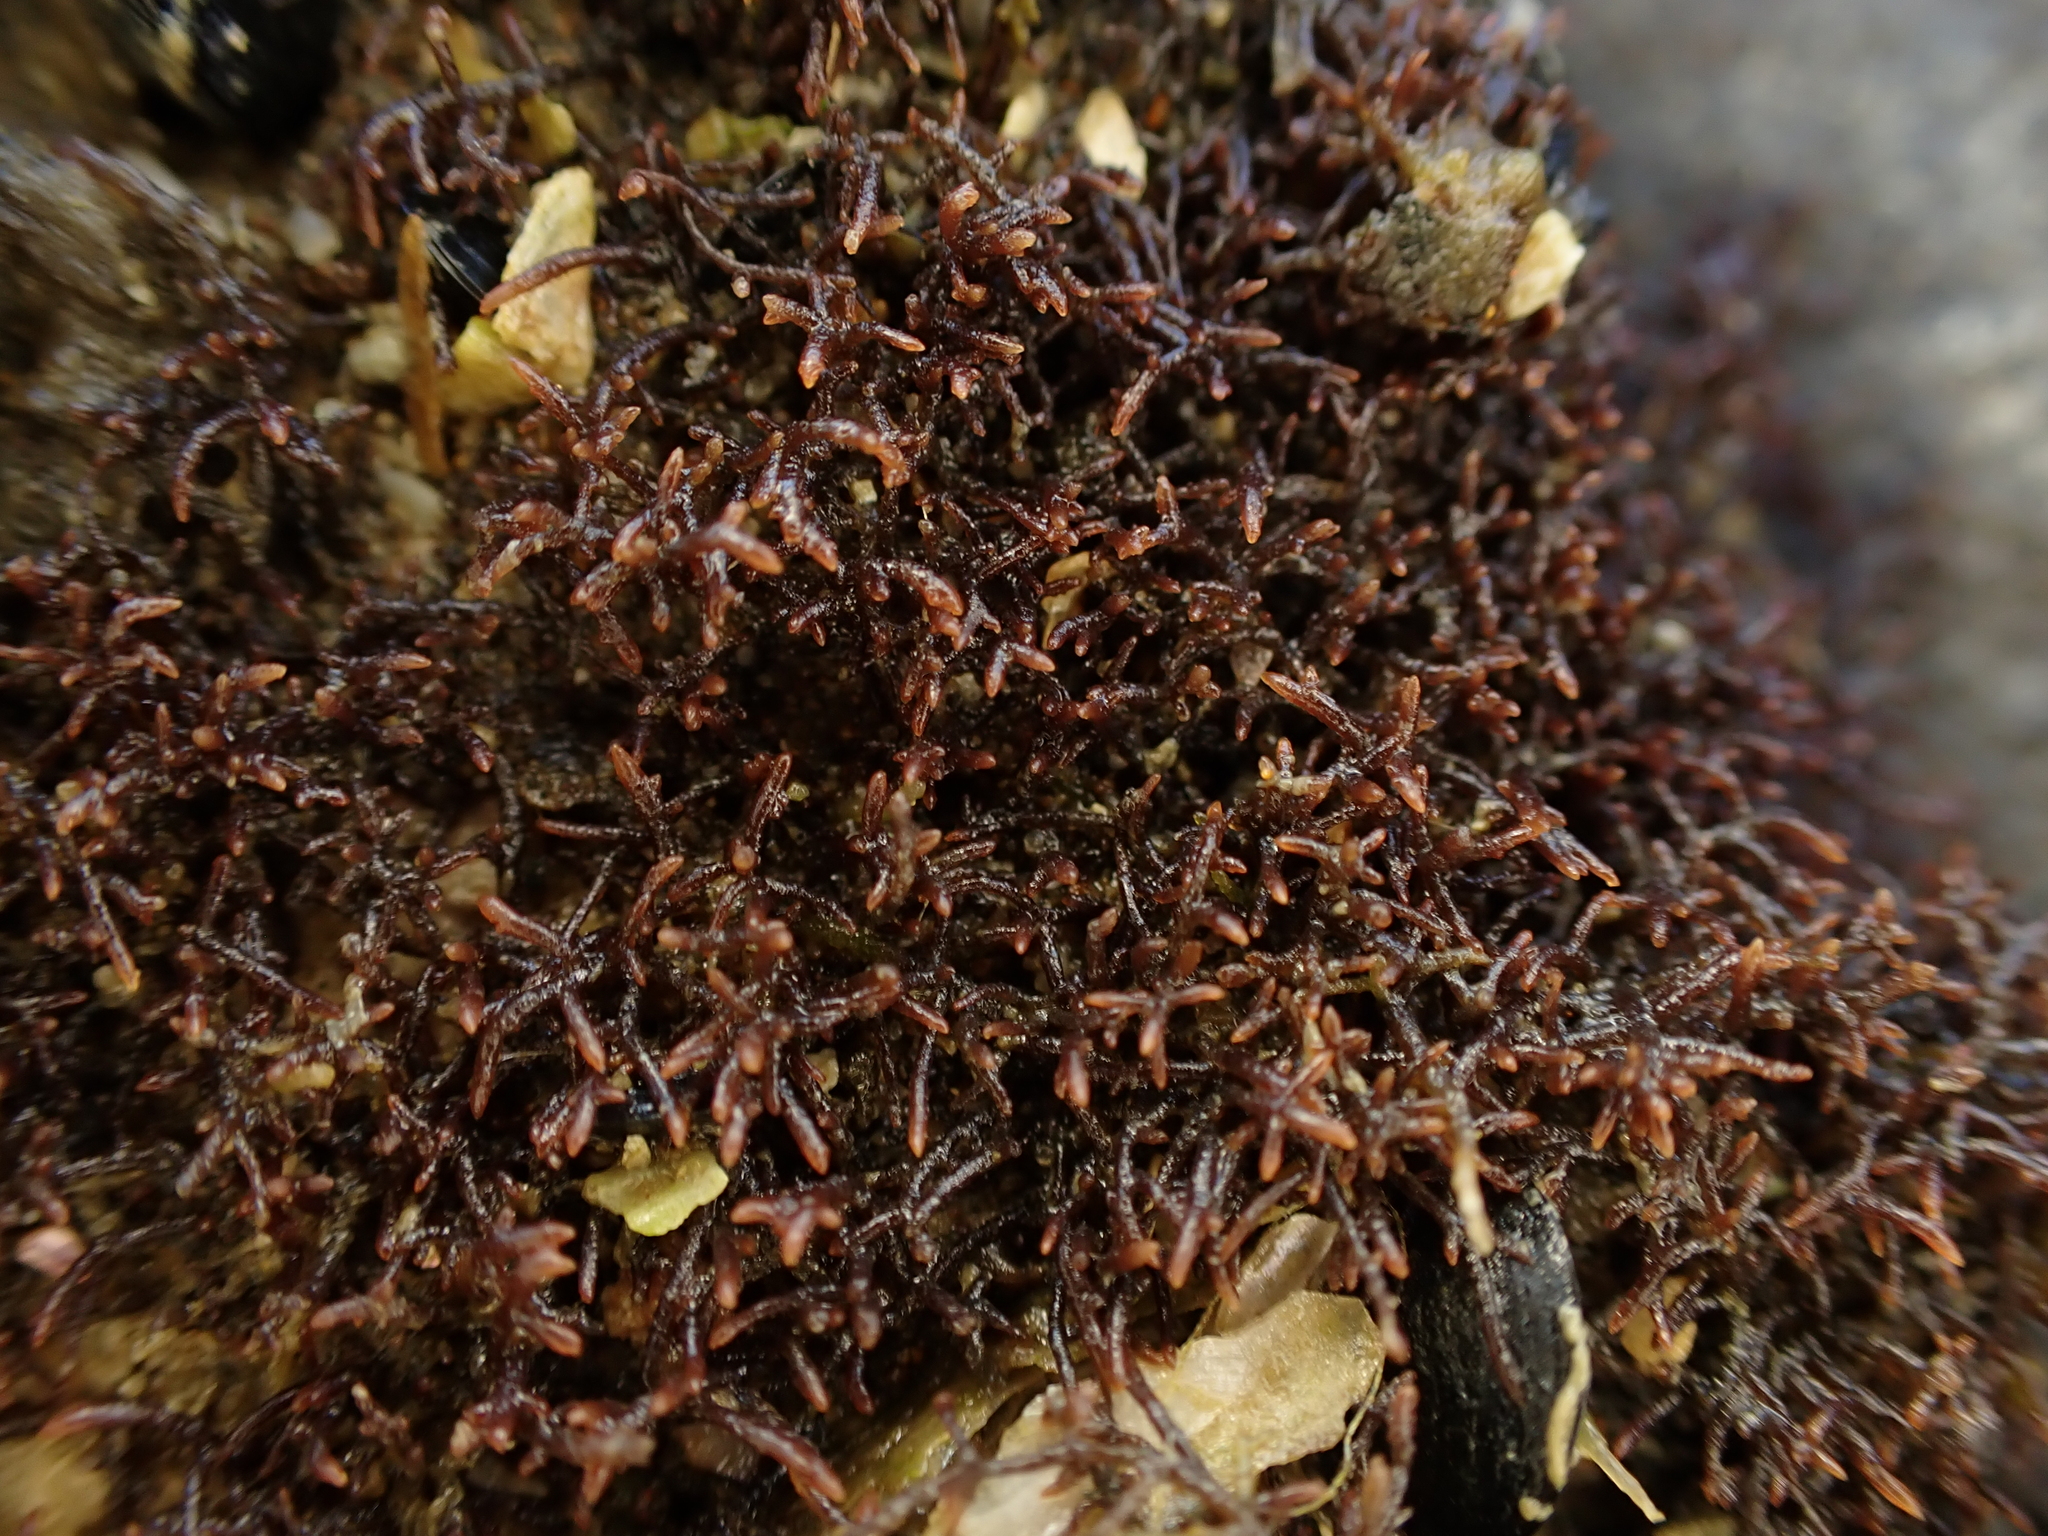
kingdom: Plantae
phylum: Rhodophyta
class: Florideophyceae
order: Gelidiales
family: Gelidiaceae
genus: Capreolia
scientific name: Capreolia implexa
